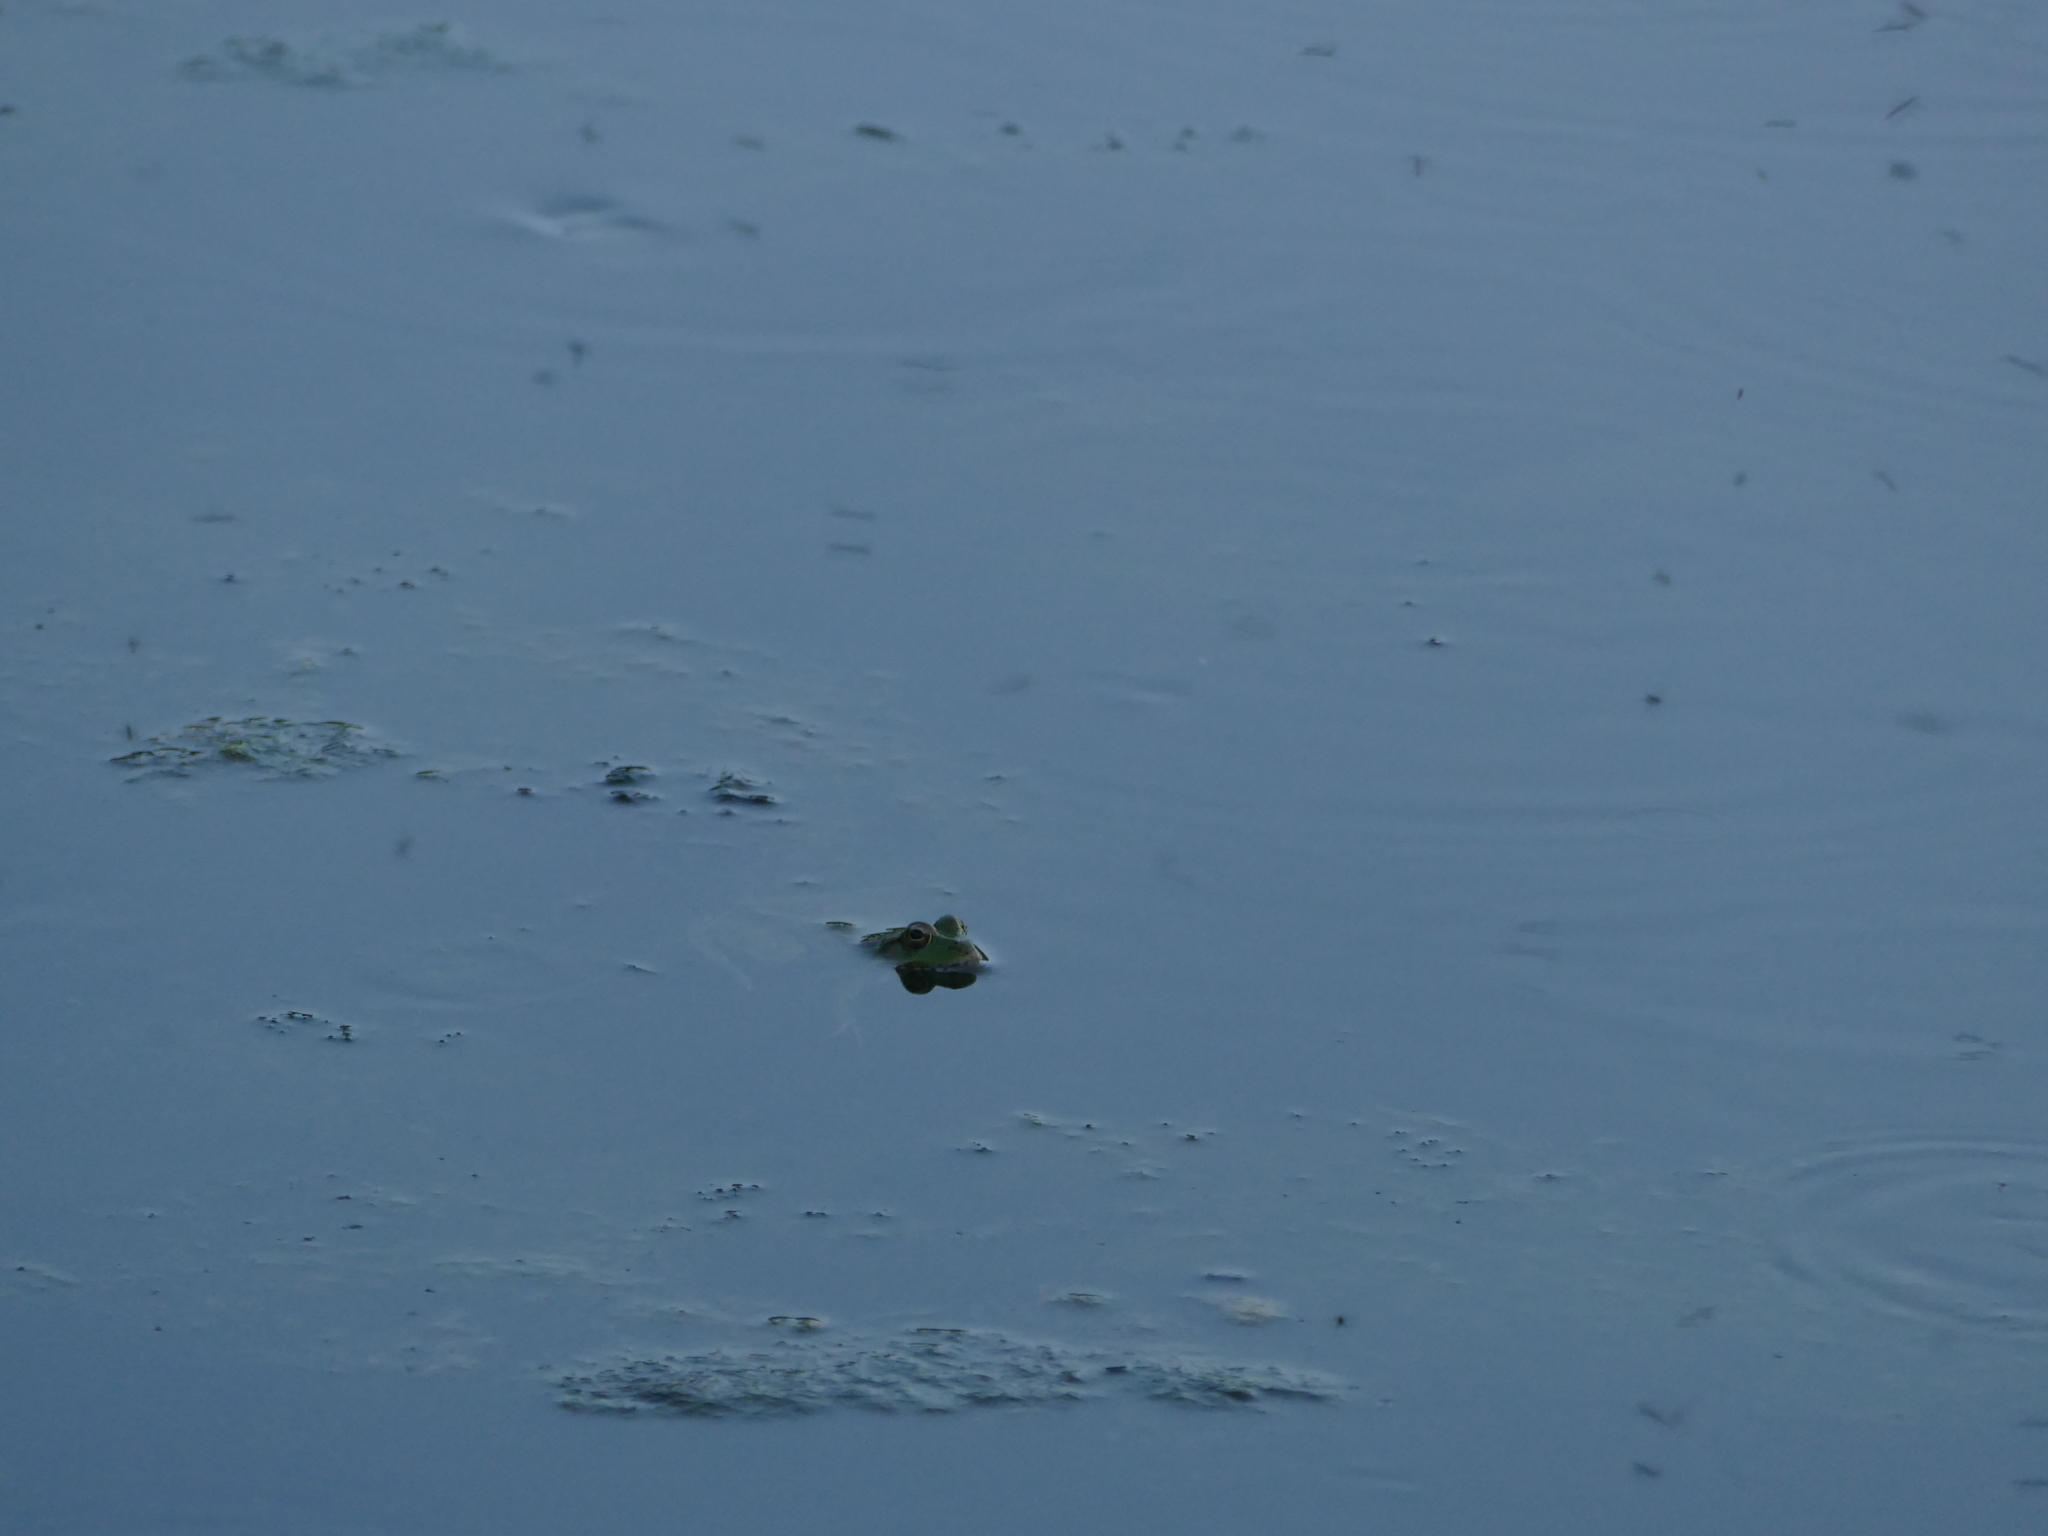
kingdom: Animalia
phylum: Chordata
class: Amphibia
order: Anura
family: Ranidae
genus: Pelophylax
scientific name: Pelophylax perezi
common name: Perez's frog
